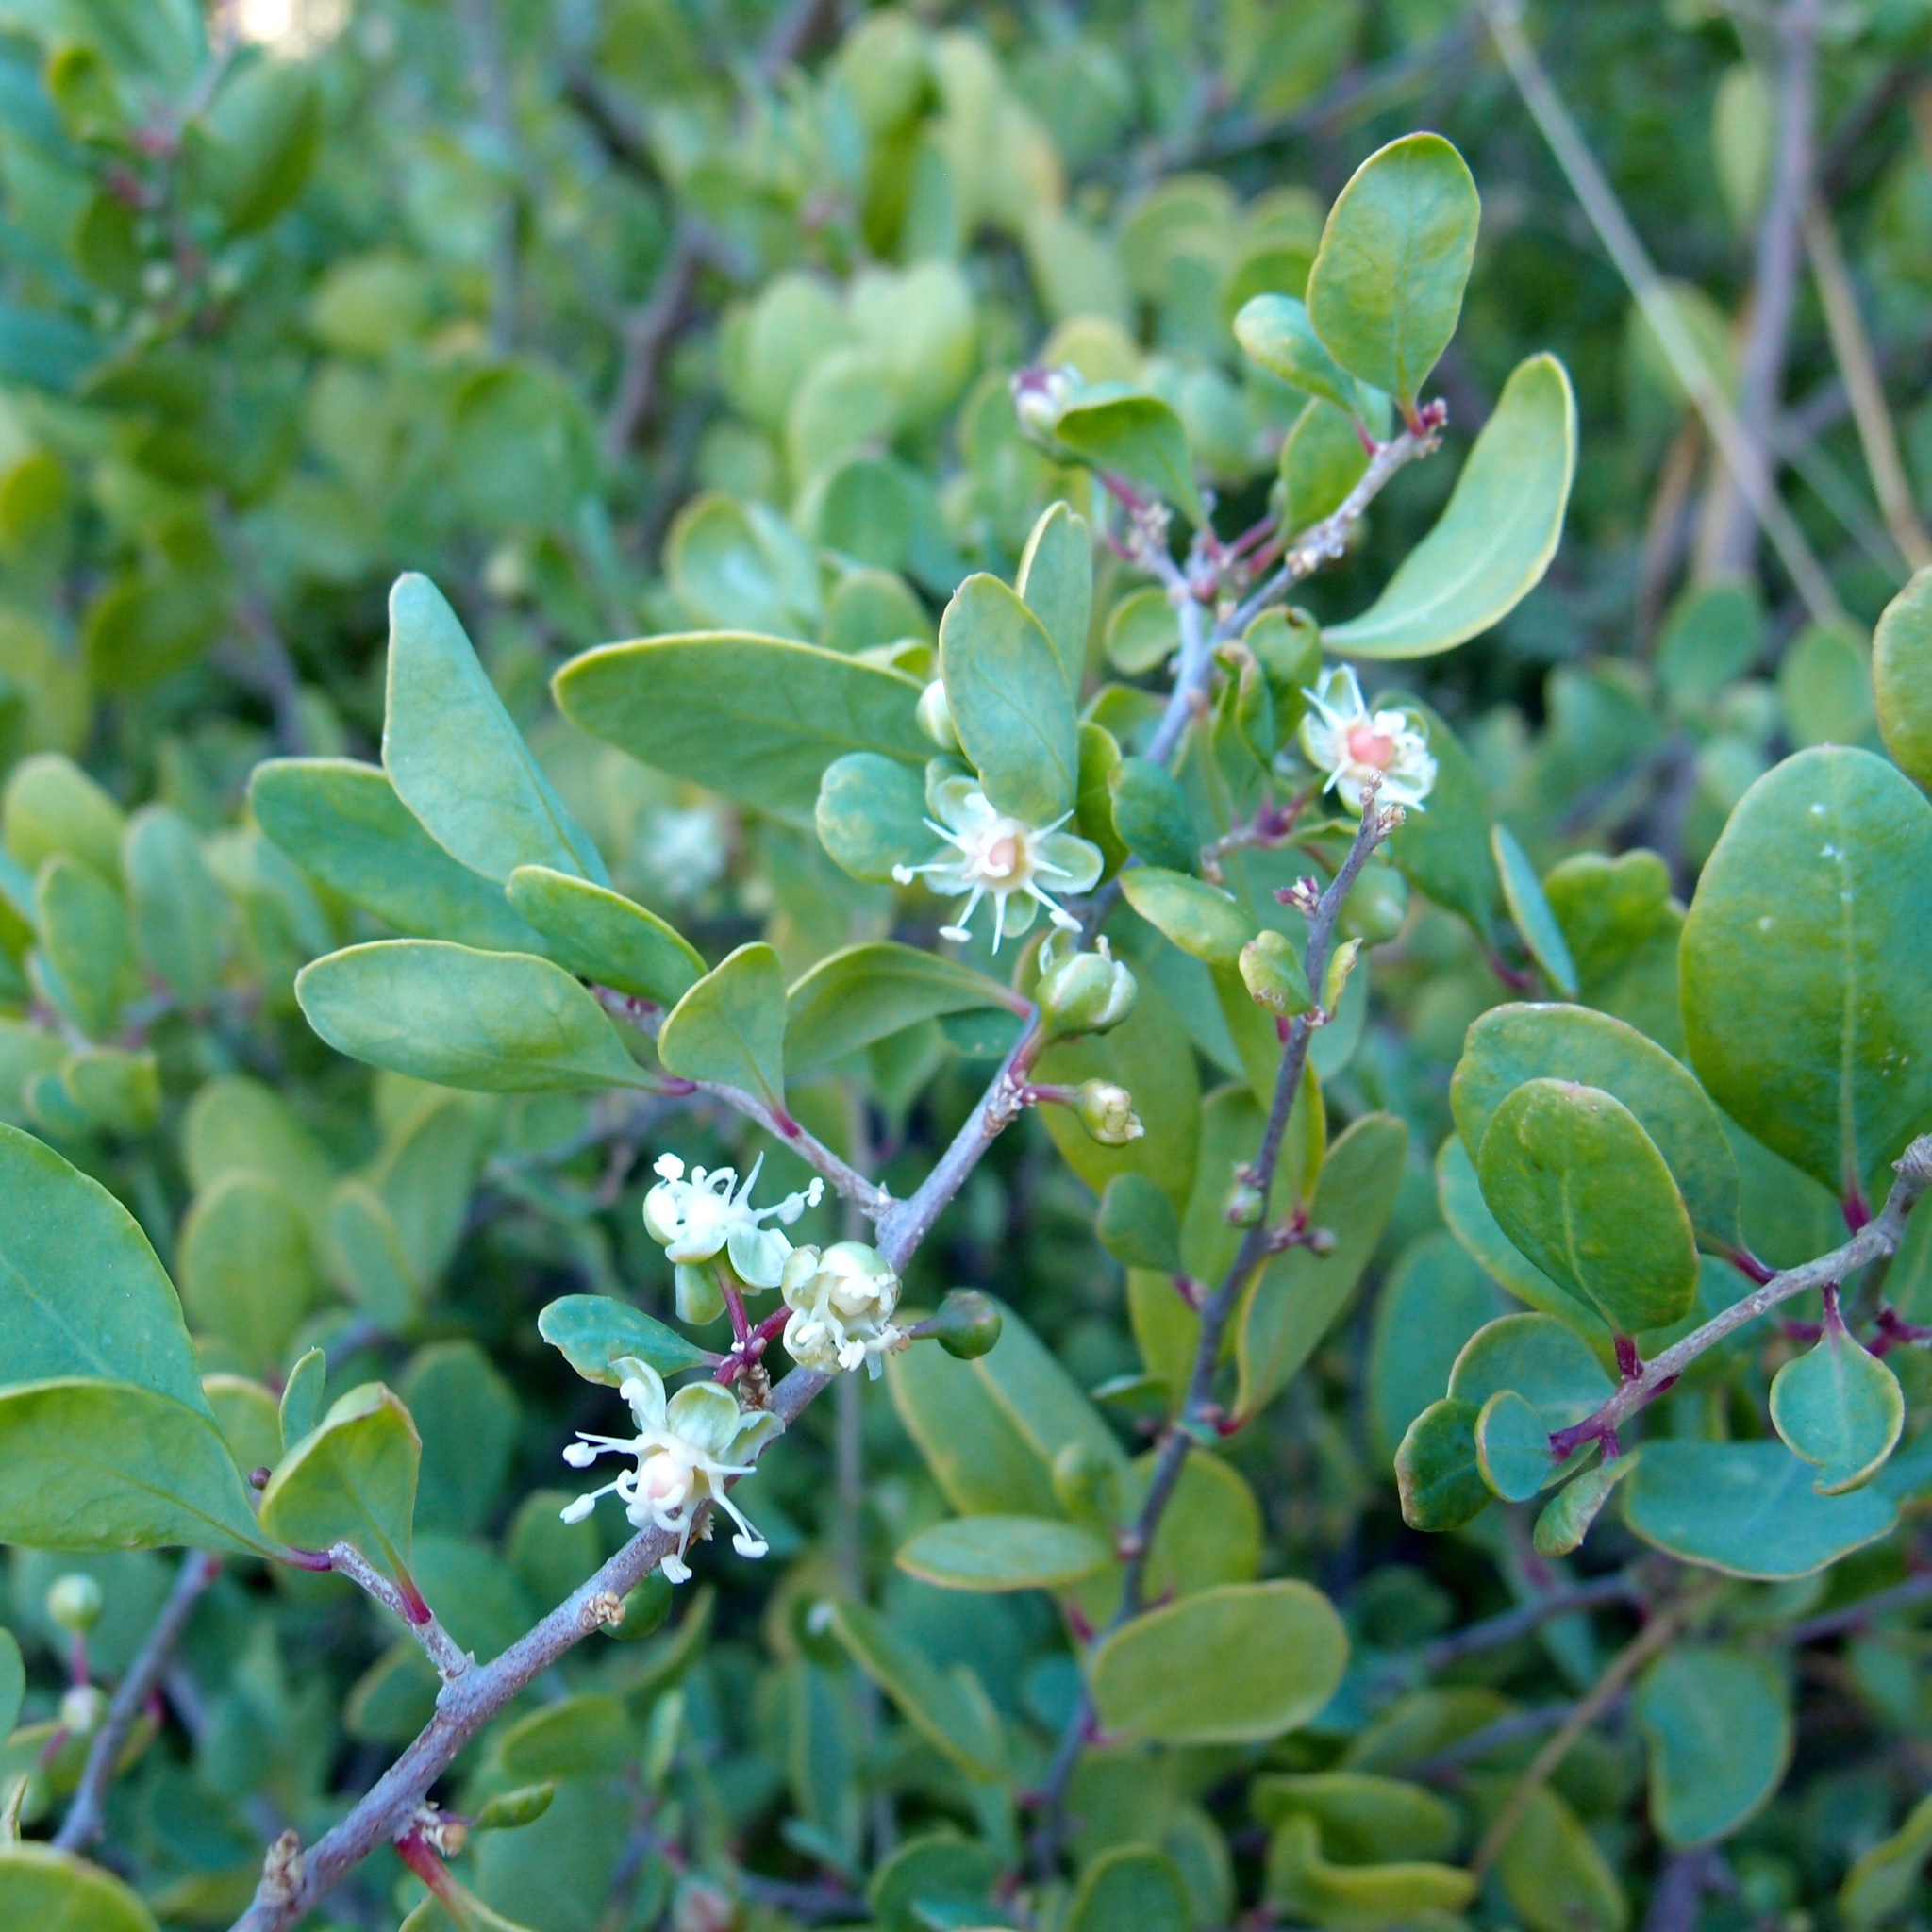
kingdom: Plantae
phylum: Tracheophyta
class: Magnoliopsida
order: Caryophyllales
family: Stegnospermataceae
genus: Stegnosperma
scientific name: Stegnosperma halimifolium
